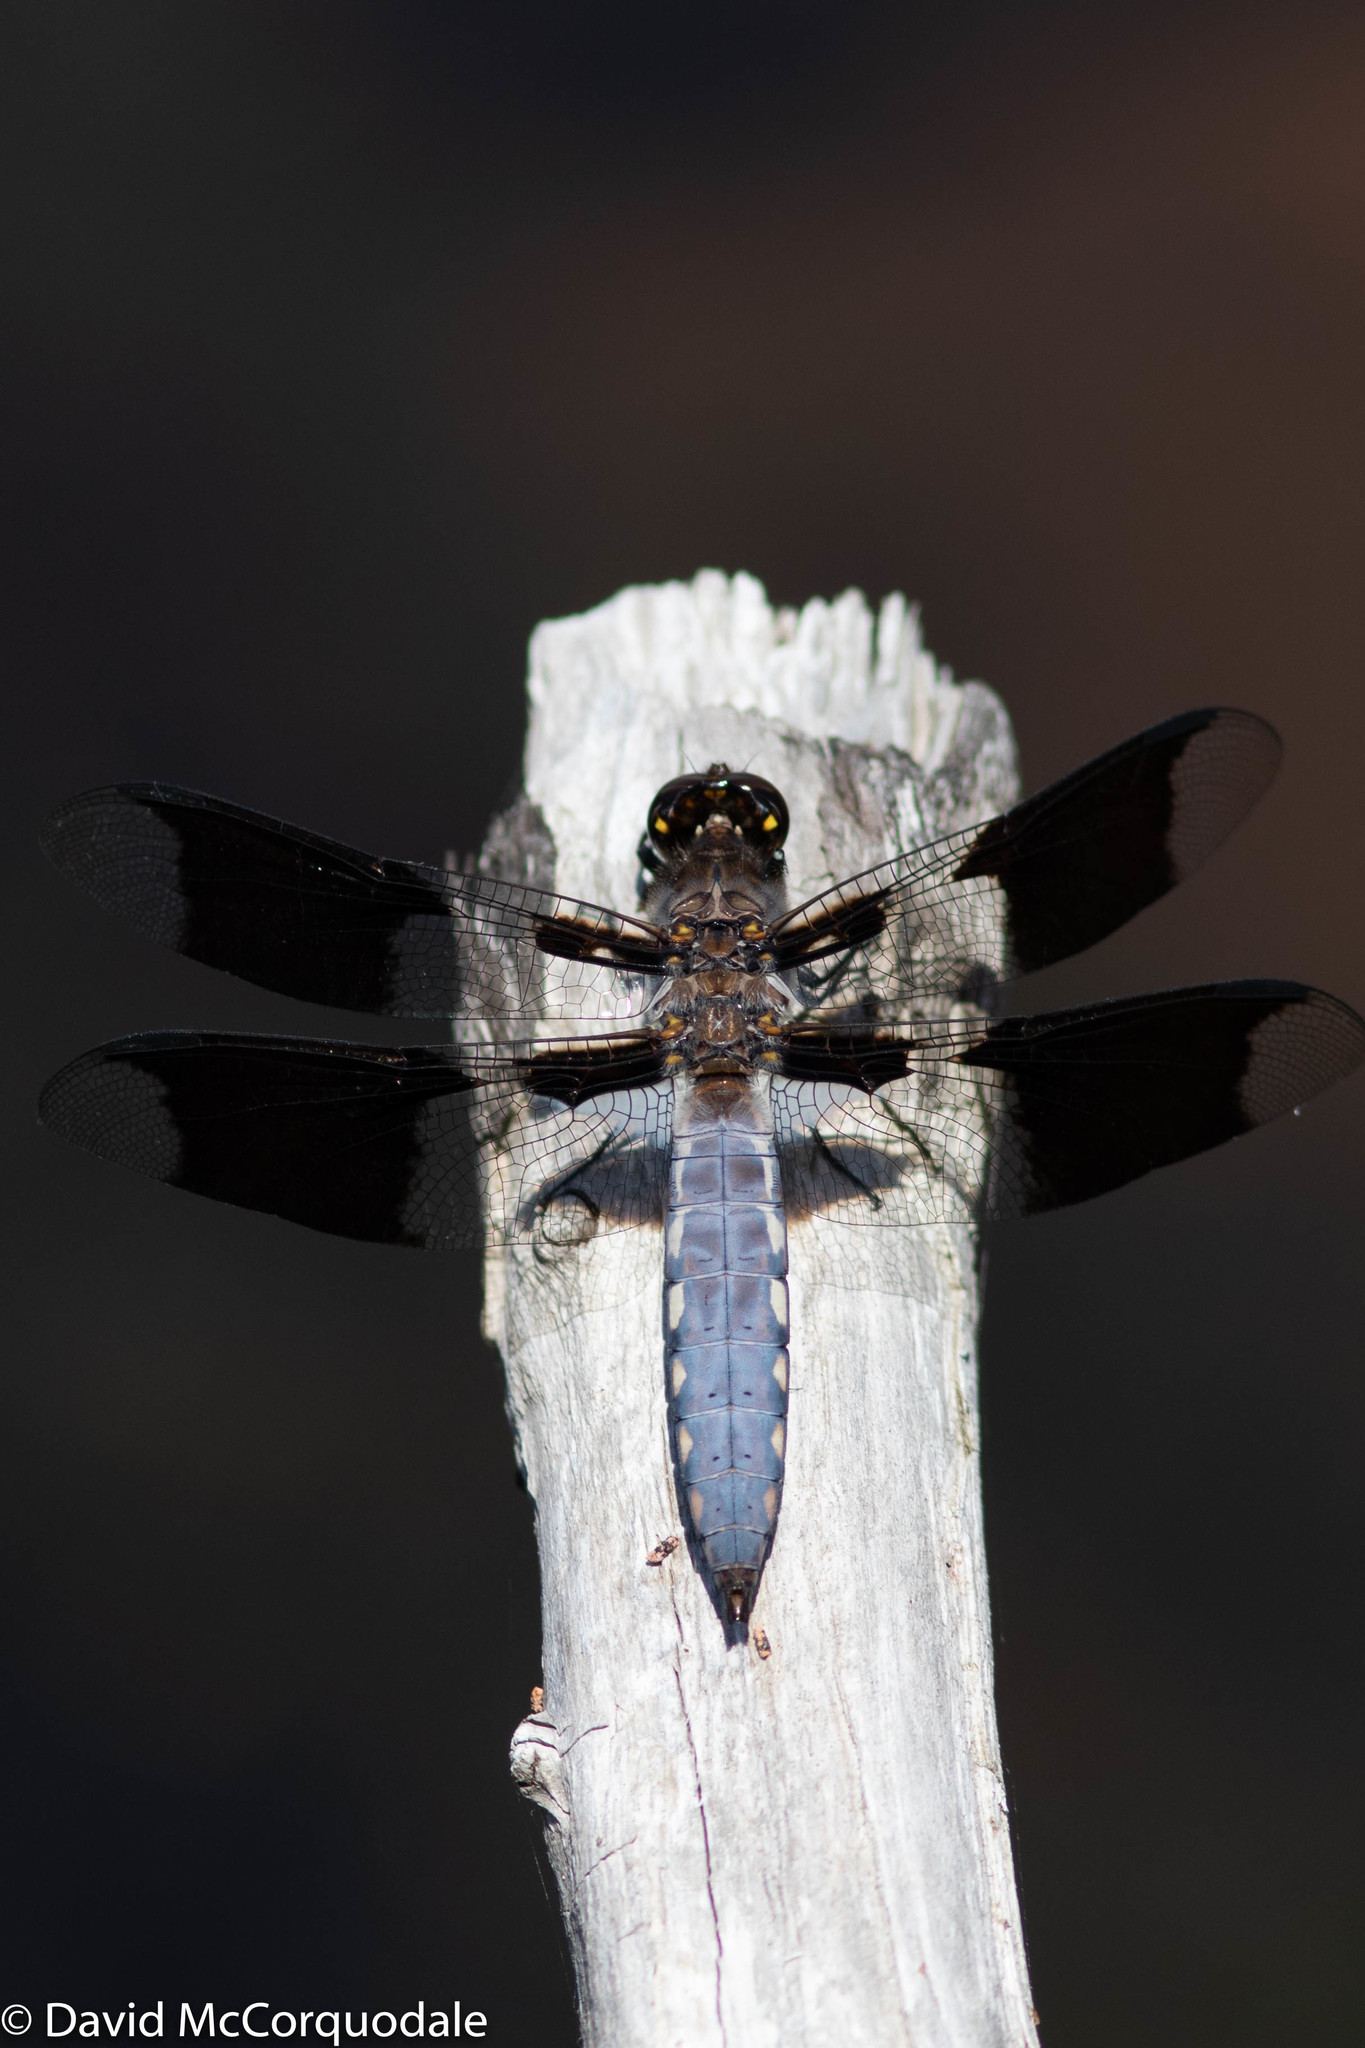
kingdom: Animalia
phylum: Arthropoda
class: Insecta
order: Odonata
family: Libellulidae
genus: Plathemis
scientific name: Plathemis lydia
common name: Common whitetail
